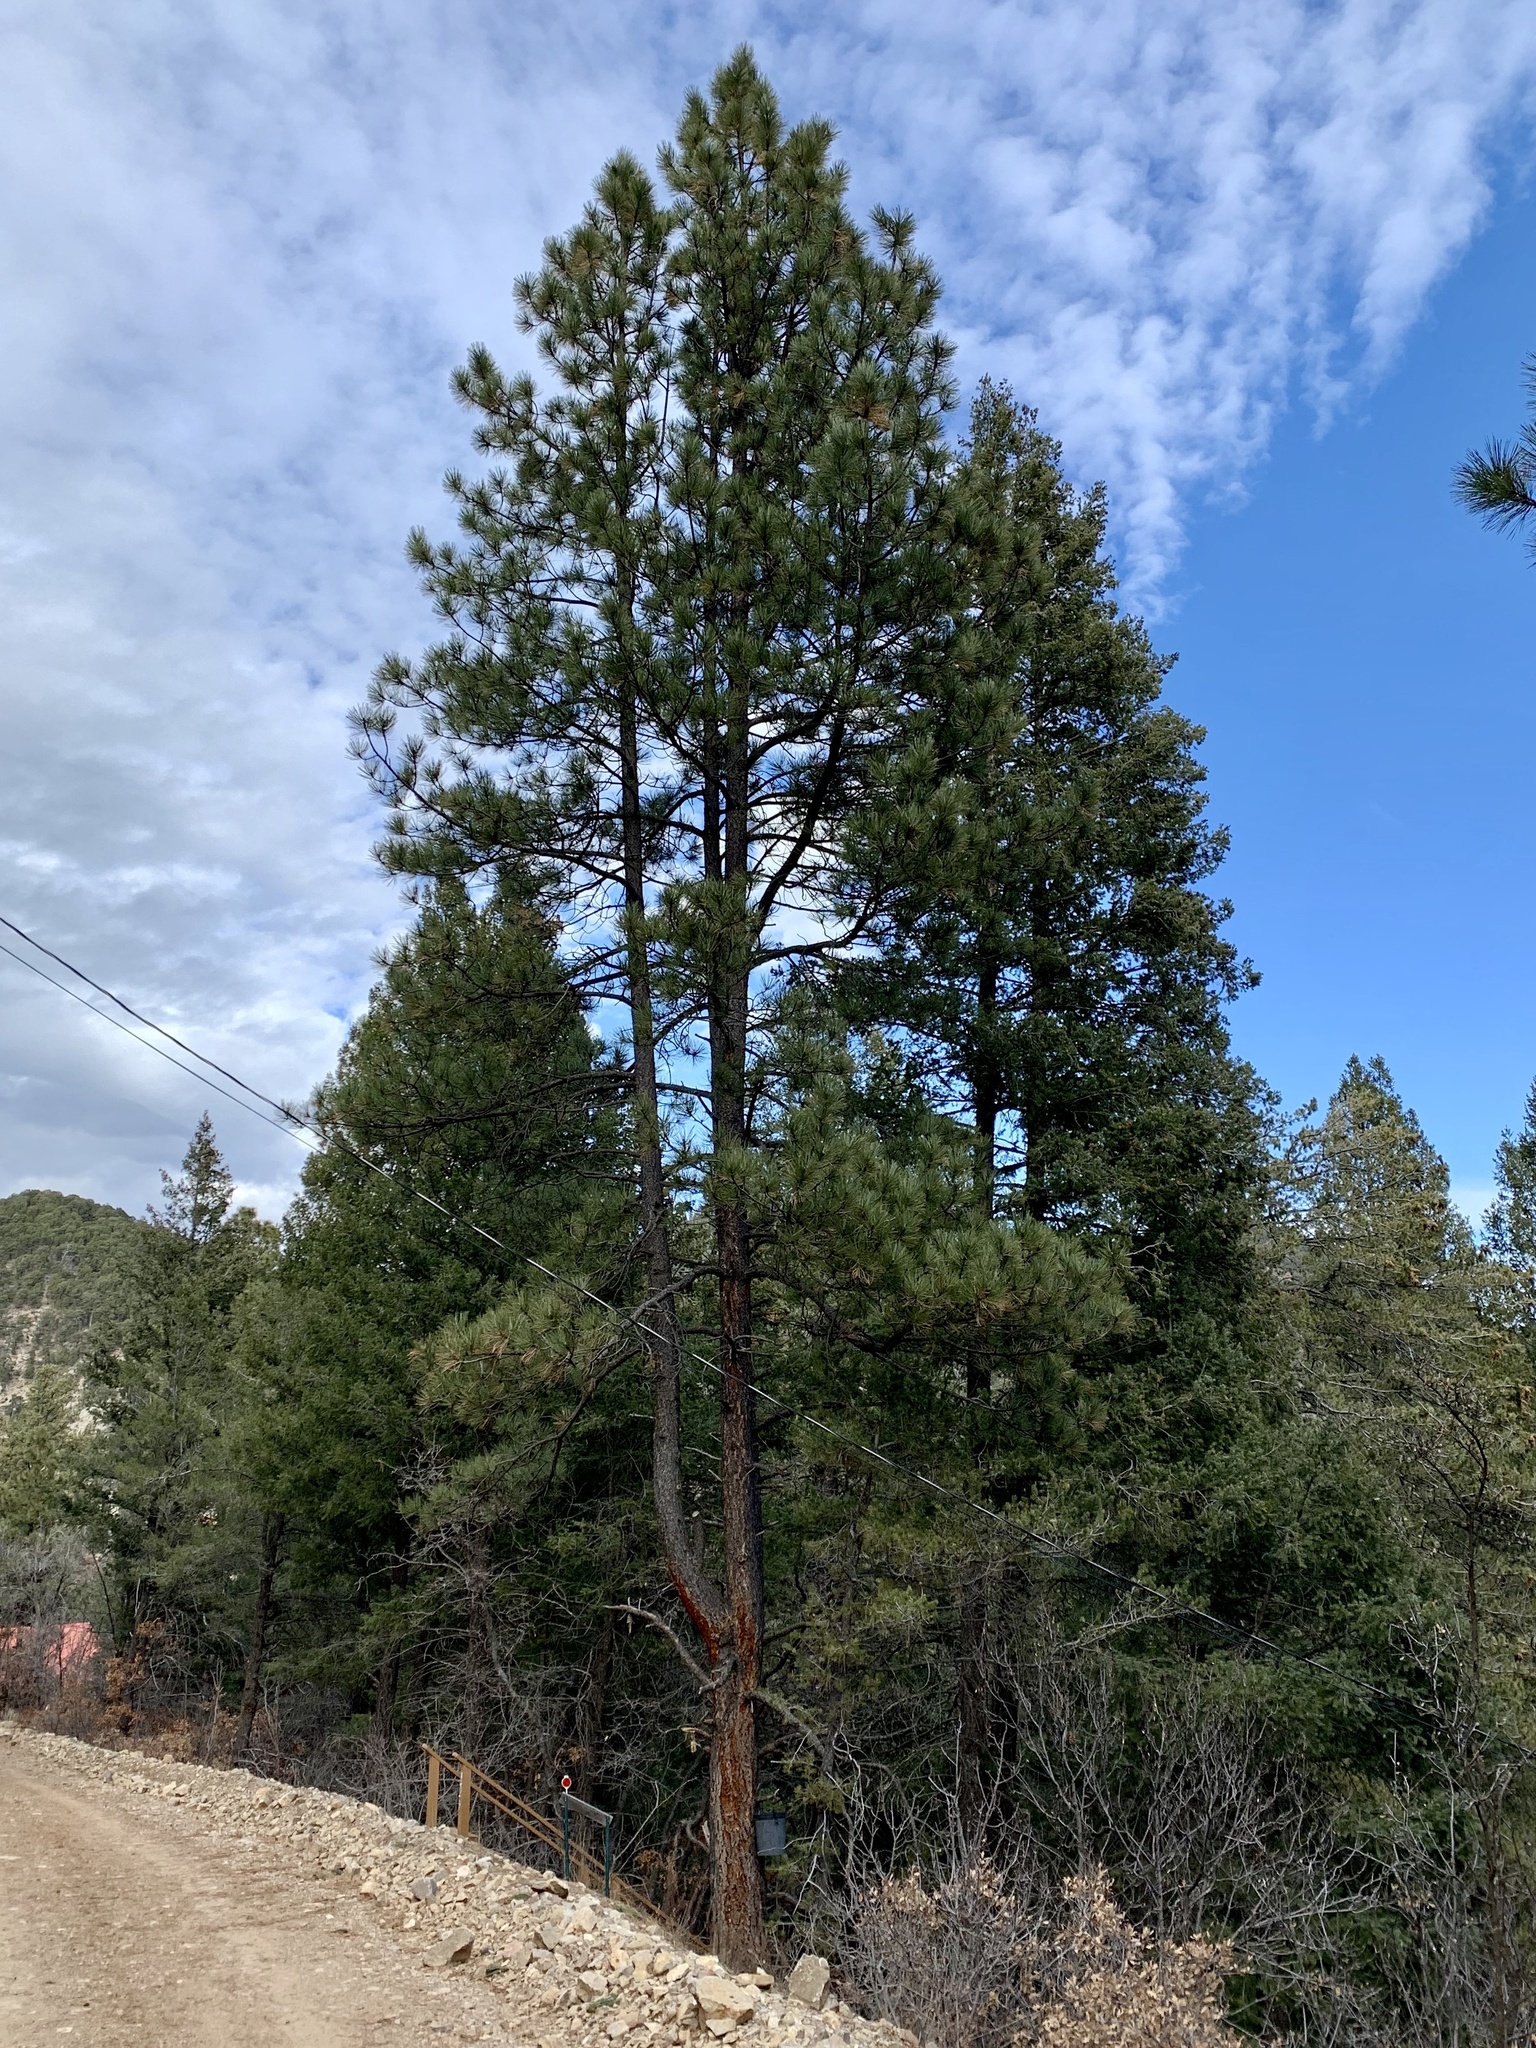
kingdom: Plantae
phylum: Tracheophyta
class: Pinopsida
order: Pinales
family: Pinaceae
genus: Pinus
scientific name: Pinus ponderosa
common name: Western yellow-pine
